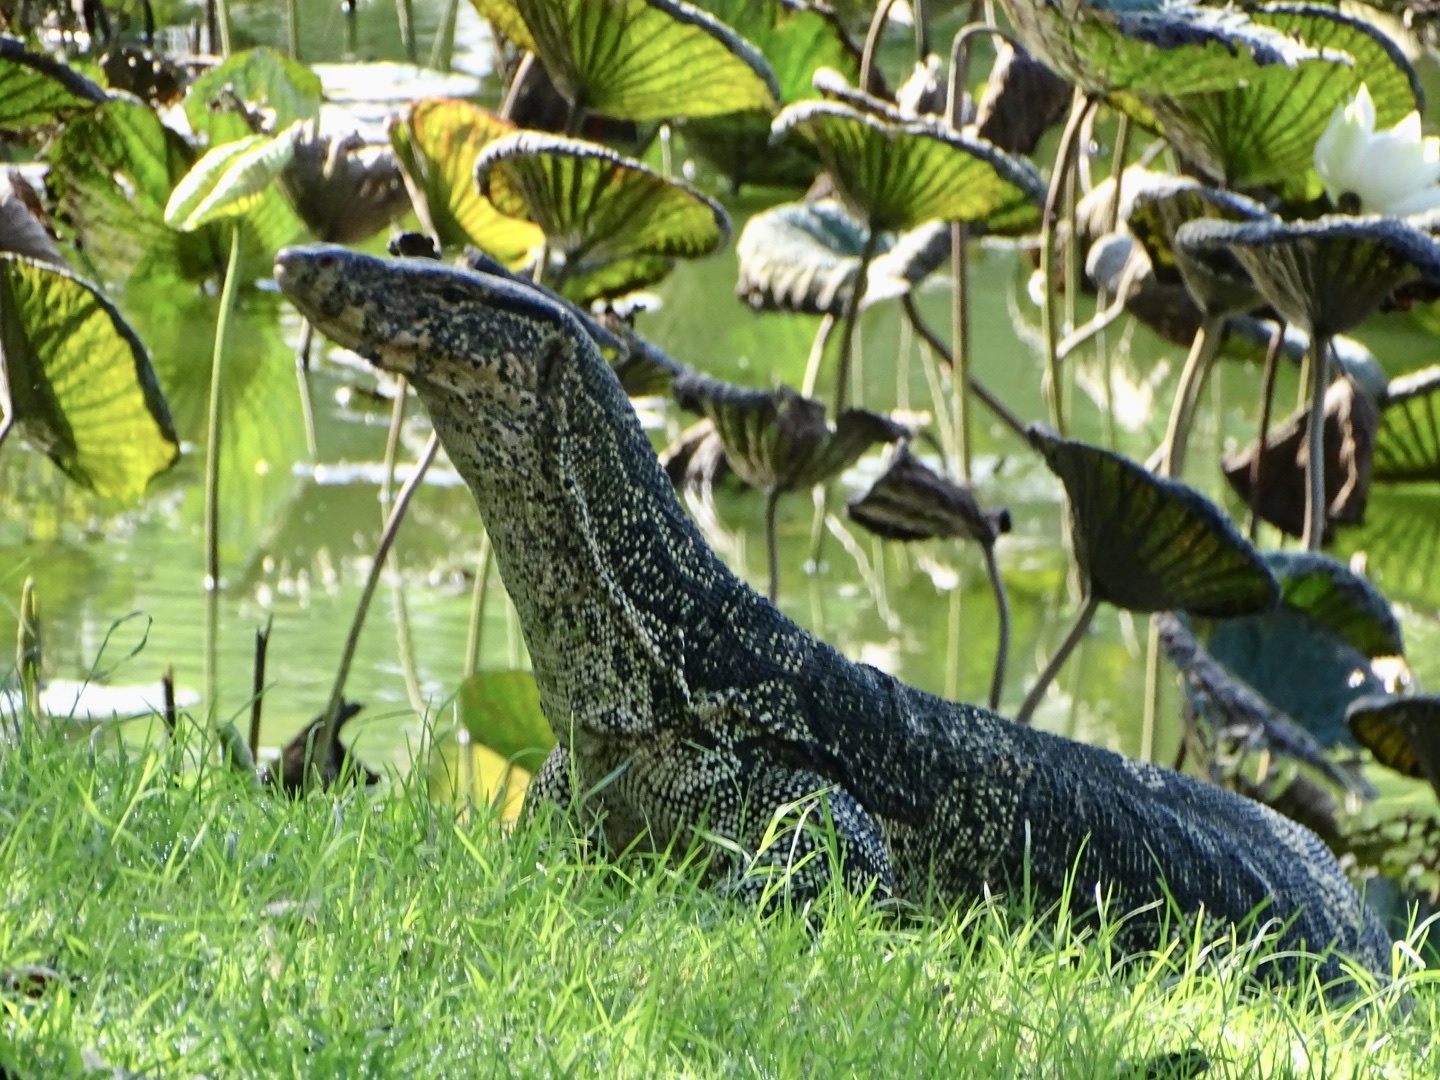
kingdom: Animalia
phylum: Chordata
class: Squamata
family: Varanidae
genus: Varanus
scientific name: Varanus salvator
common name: Common water monitor
